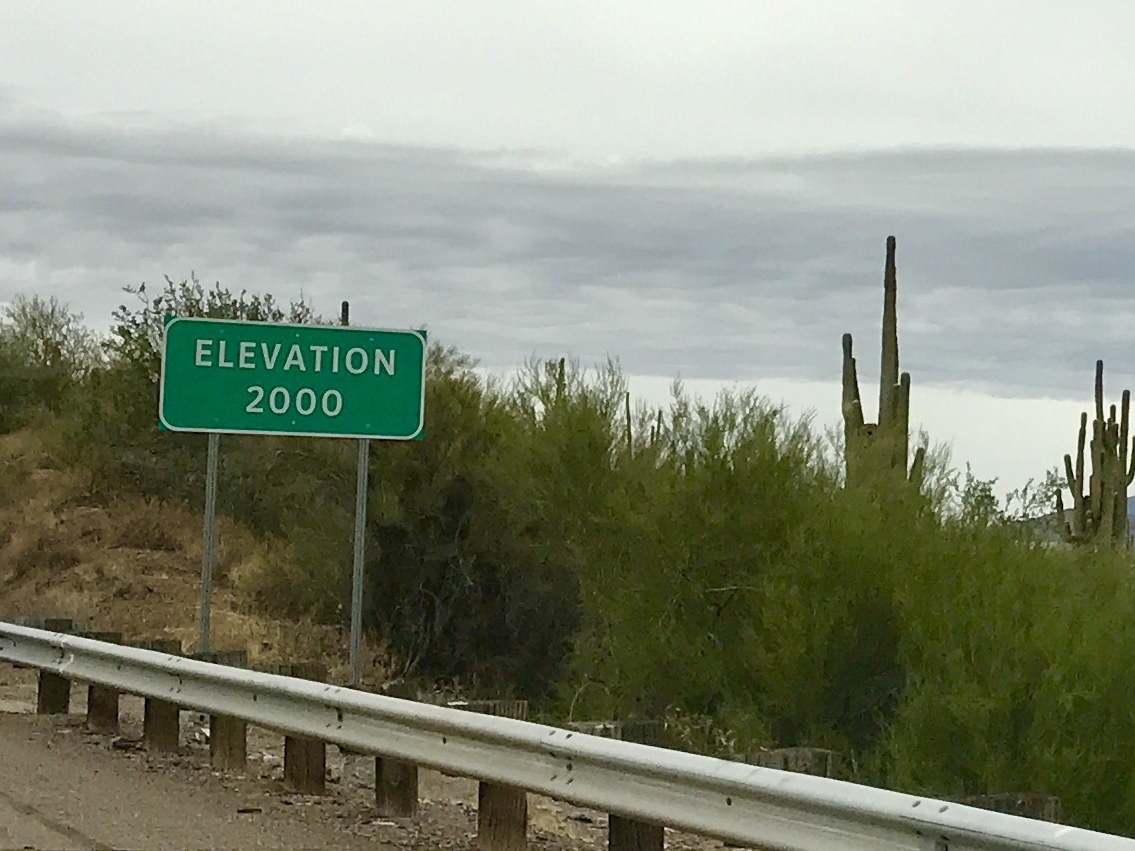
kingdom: Plantae
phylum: Tracheophyta
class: Magnoliopsida
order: Fabales
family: Fabaceae
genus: Parkinsonia
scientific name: Parkinsonia microphylla
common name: Yellow paloverde
